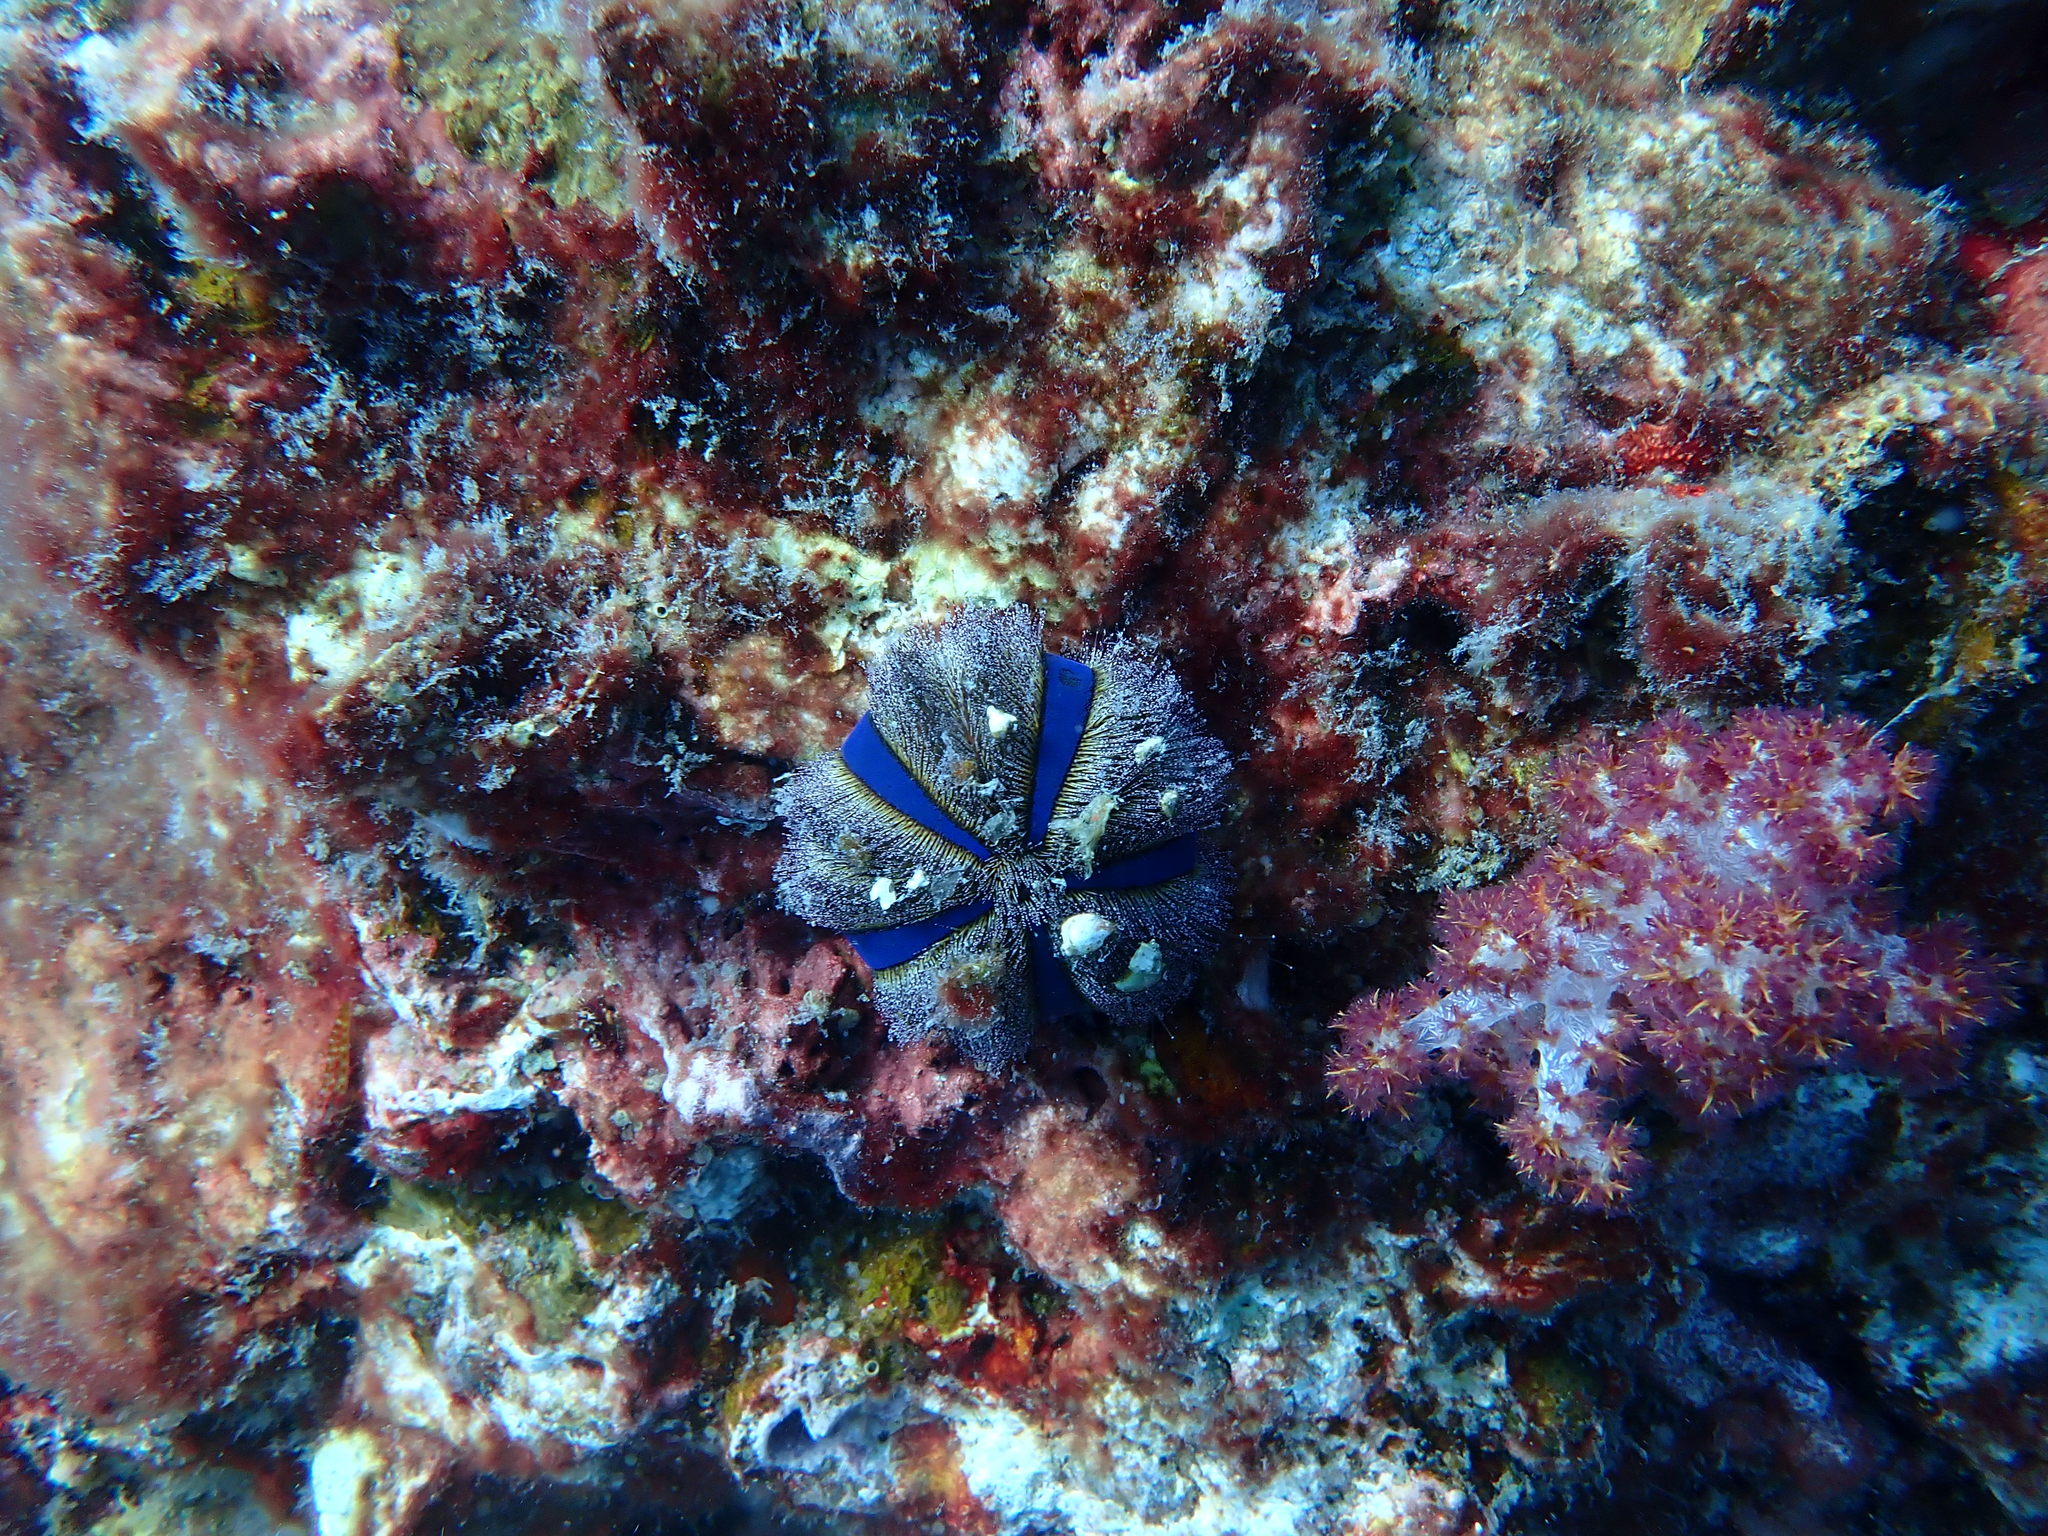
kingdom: Animalia
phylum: Echinodermata
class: Echinoidea
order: Camarodonta
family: Temnopleuridae
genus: Mespilia
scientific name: Mespilia globulus
